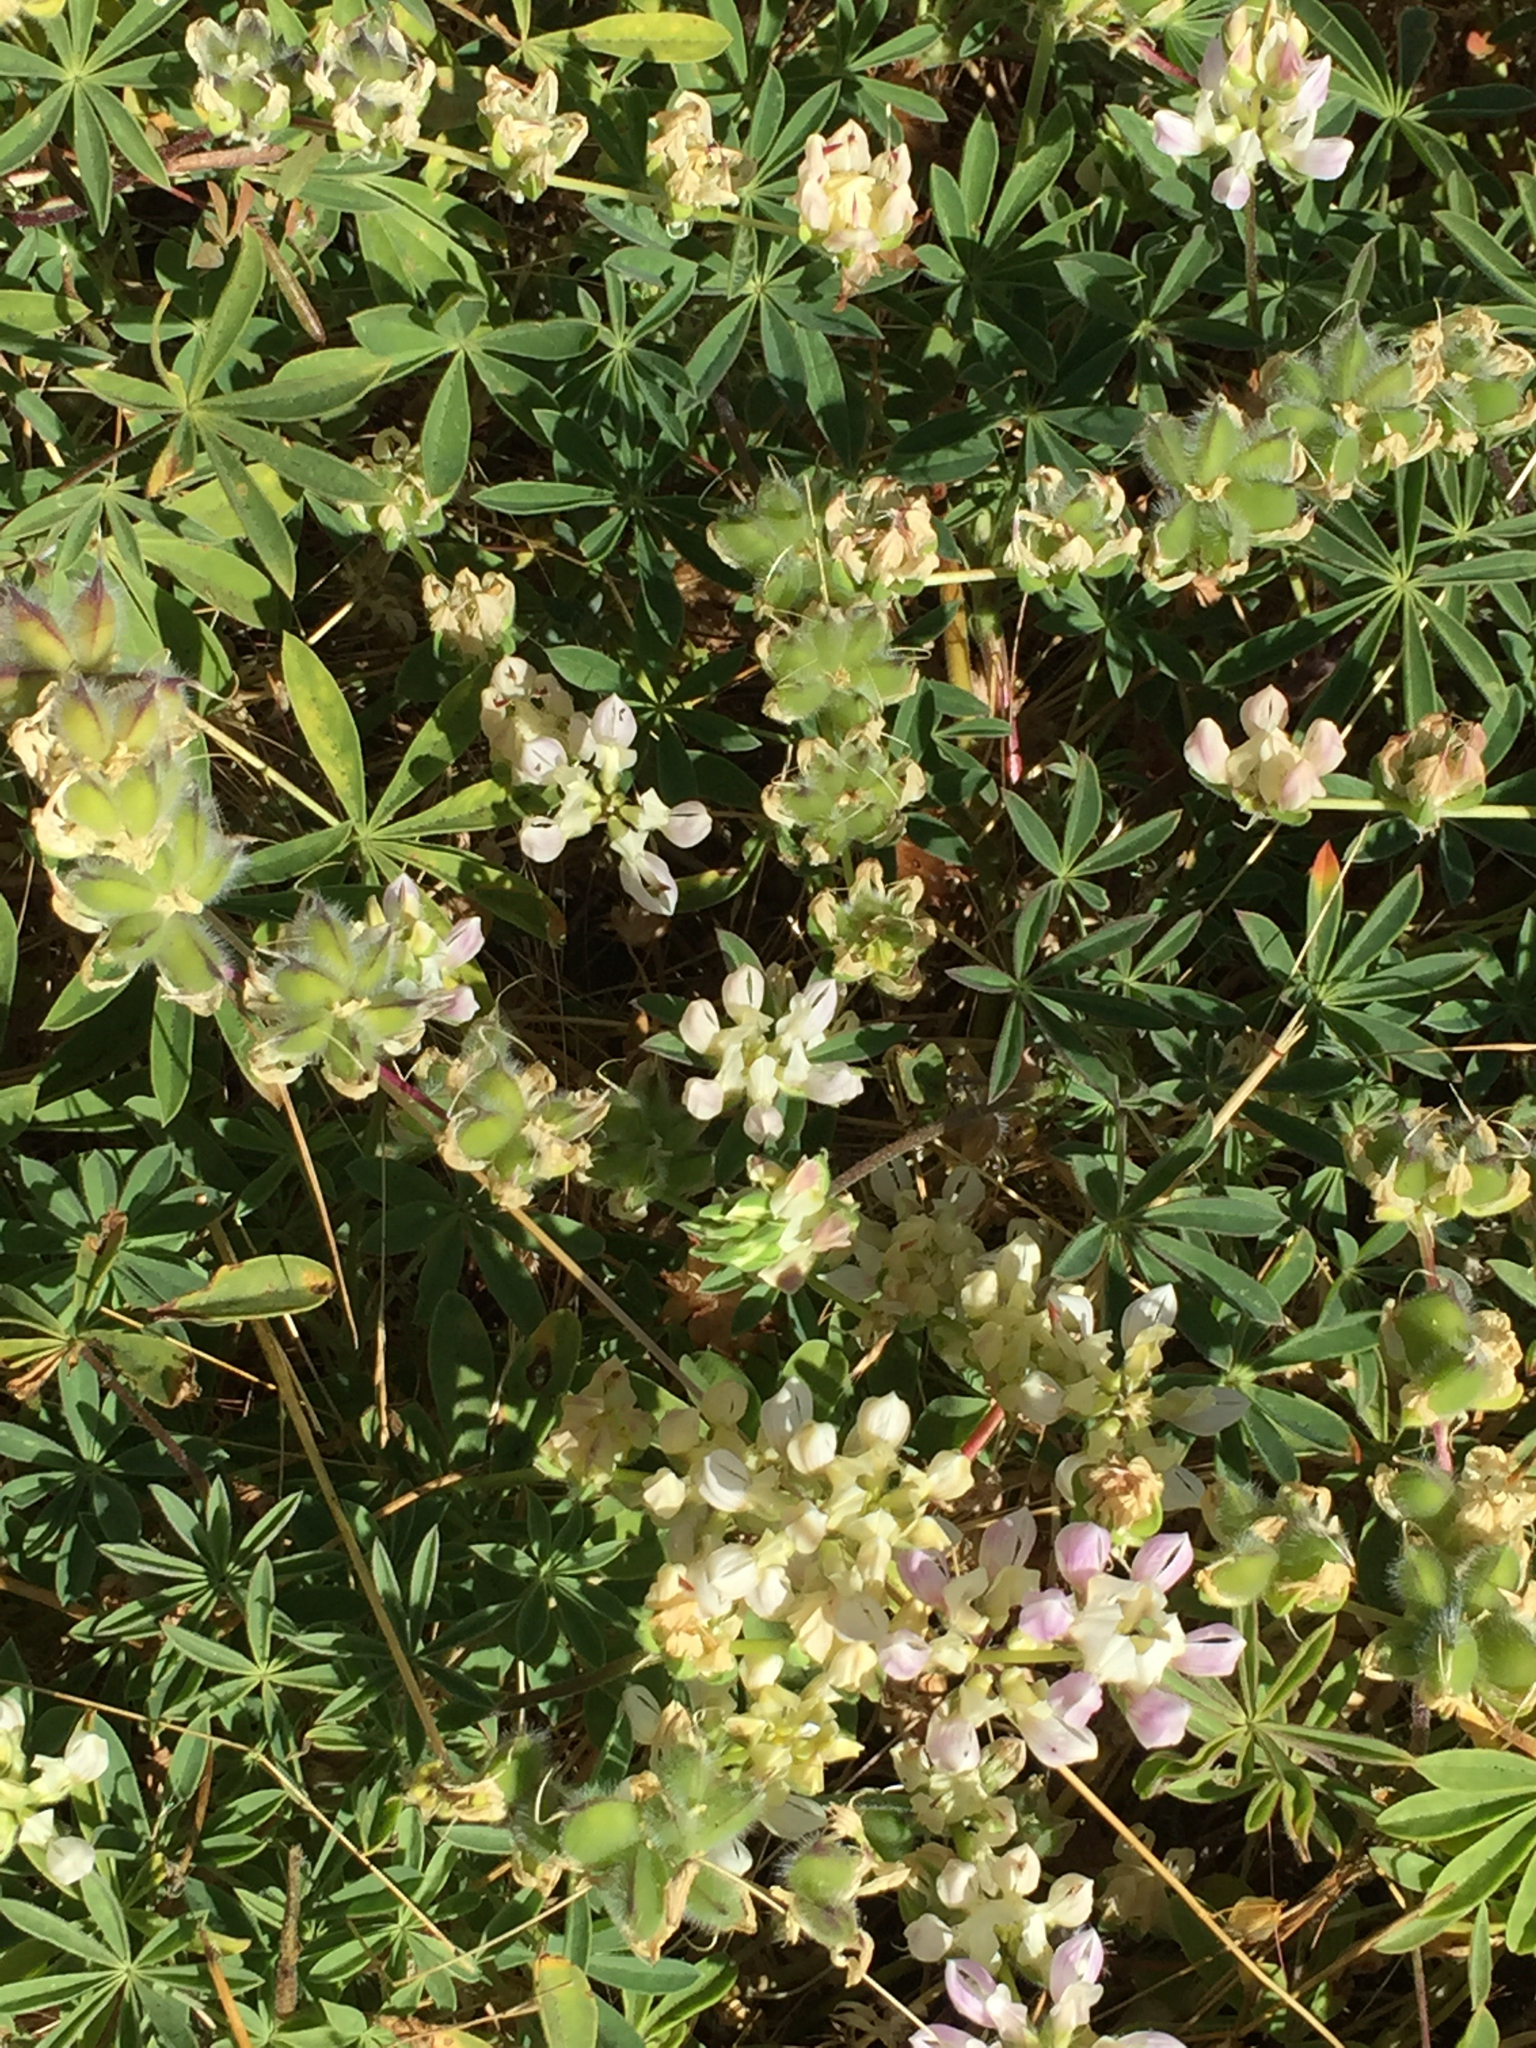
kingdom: Plantae
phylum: Tracheophyta
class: Magnoliopsida
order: Fabales
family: Fabaceae
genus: Lupinus
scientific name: Lupinus microcarpus
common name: Chick lupine
